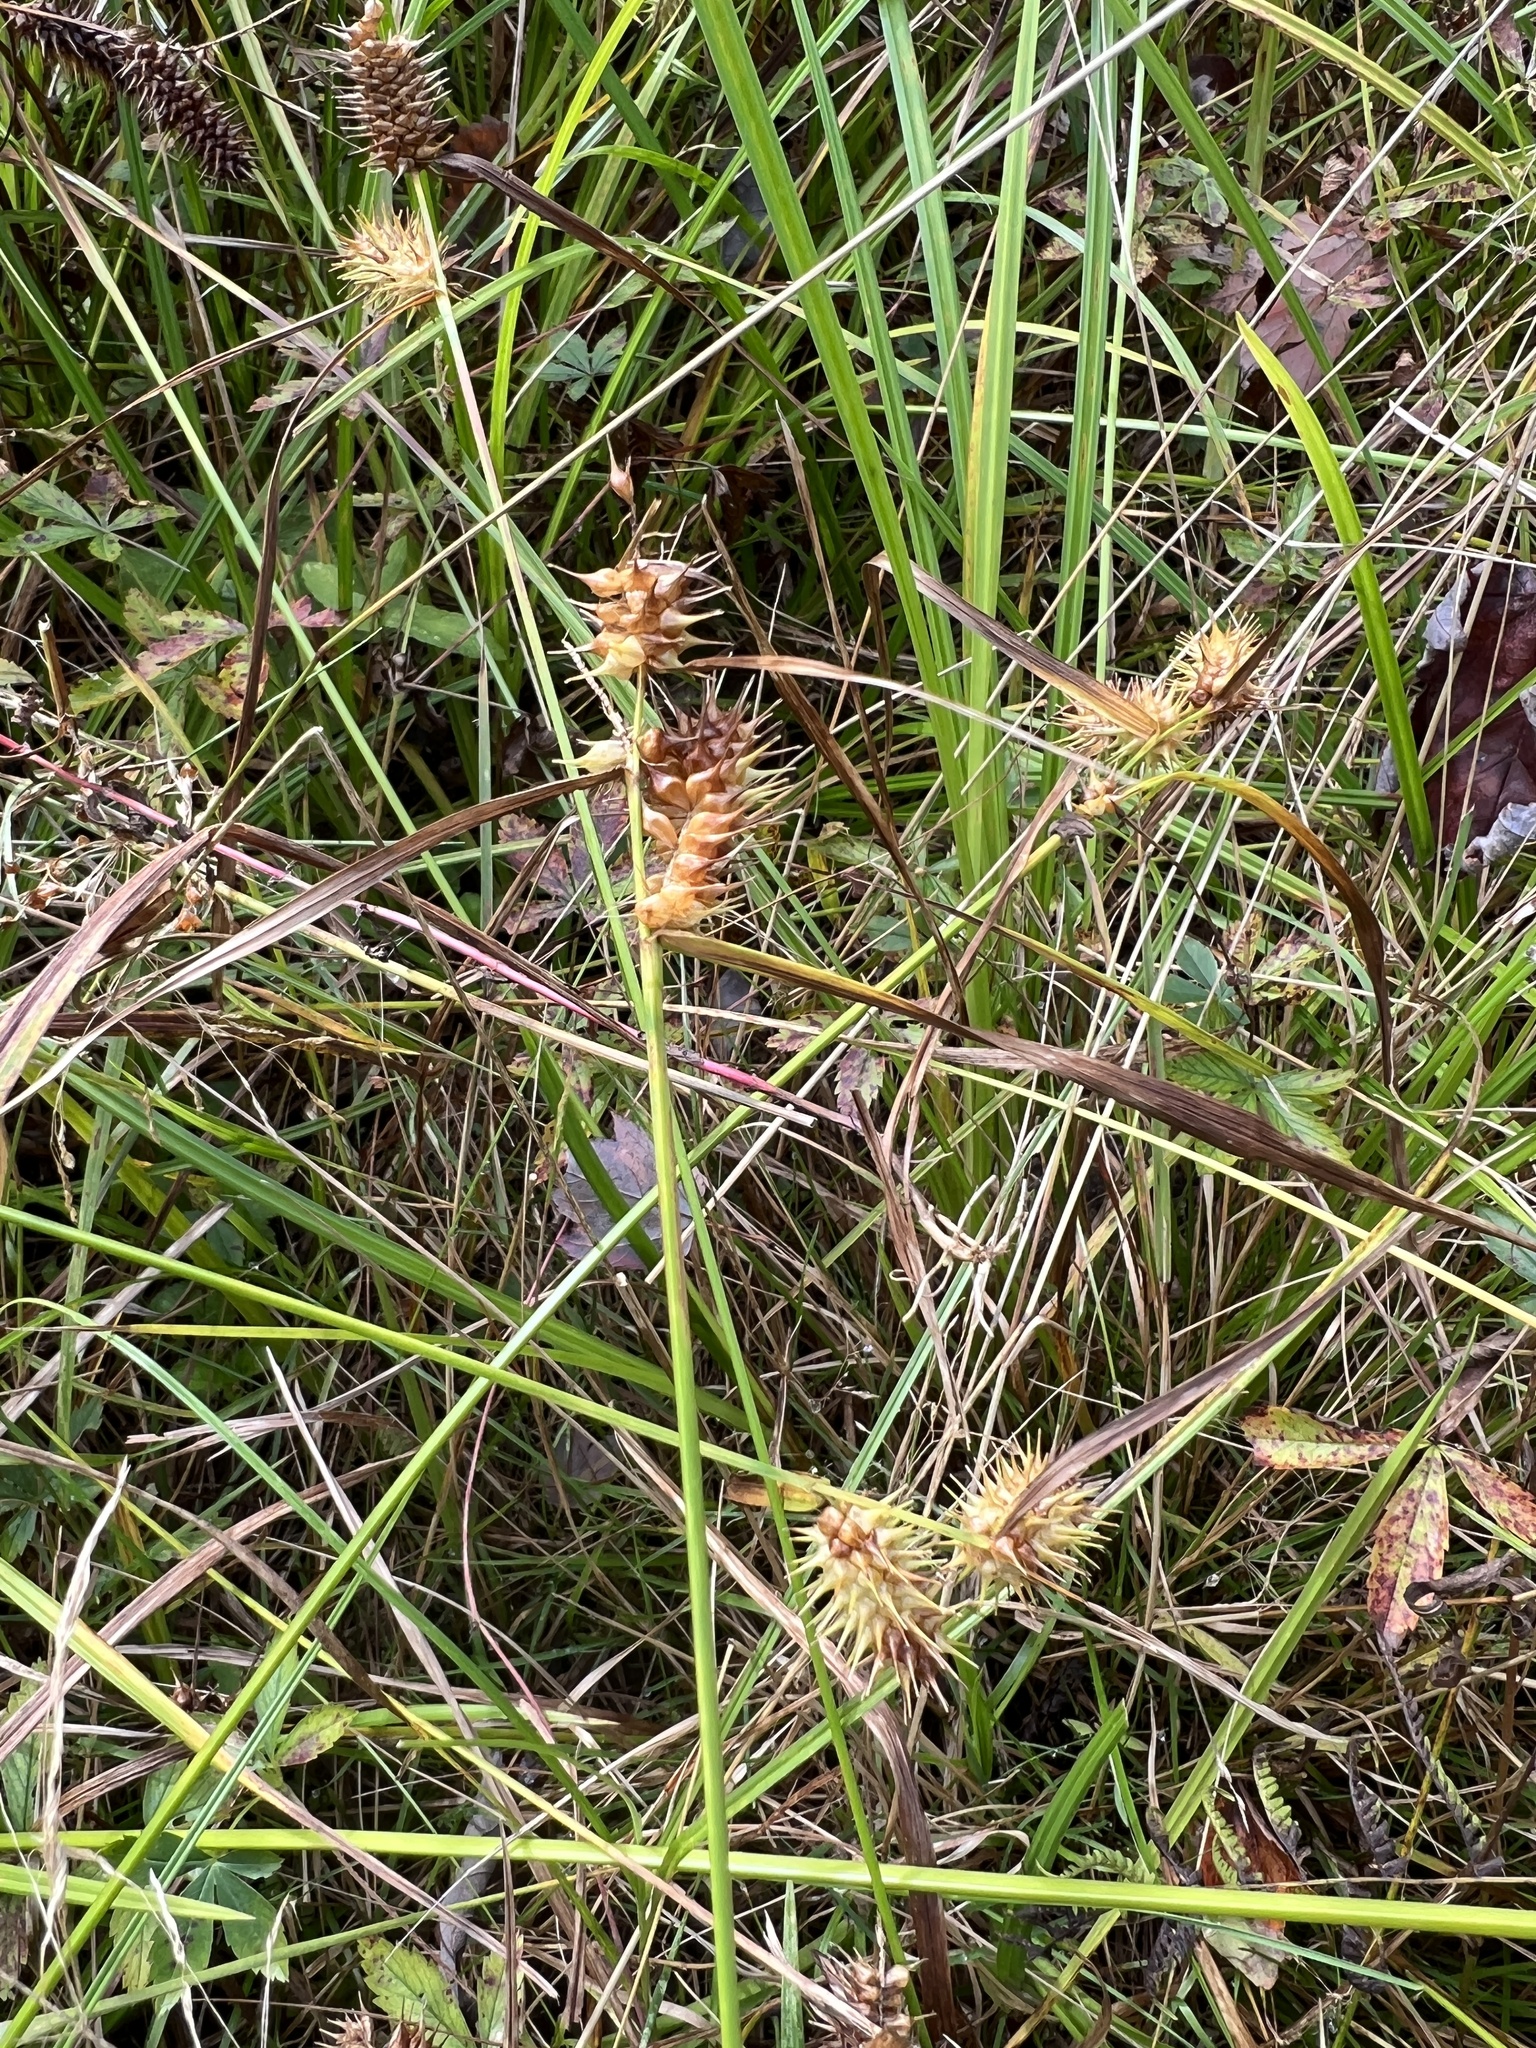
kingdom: Plantae
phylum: Tracheophyta
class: Liliopsida
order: Poales
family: Cyperaceae
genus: Carex
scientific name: Carex lurida
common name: Sallow sedge
